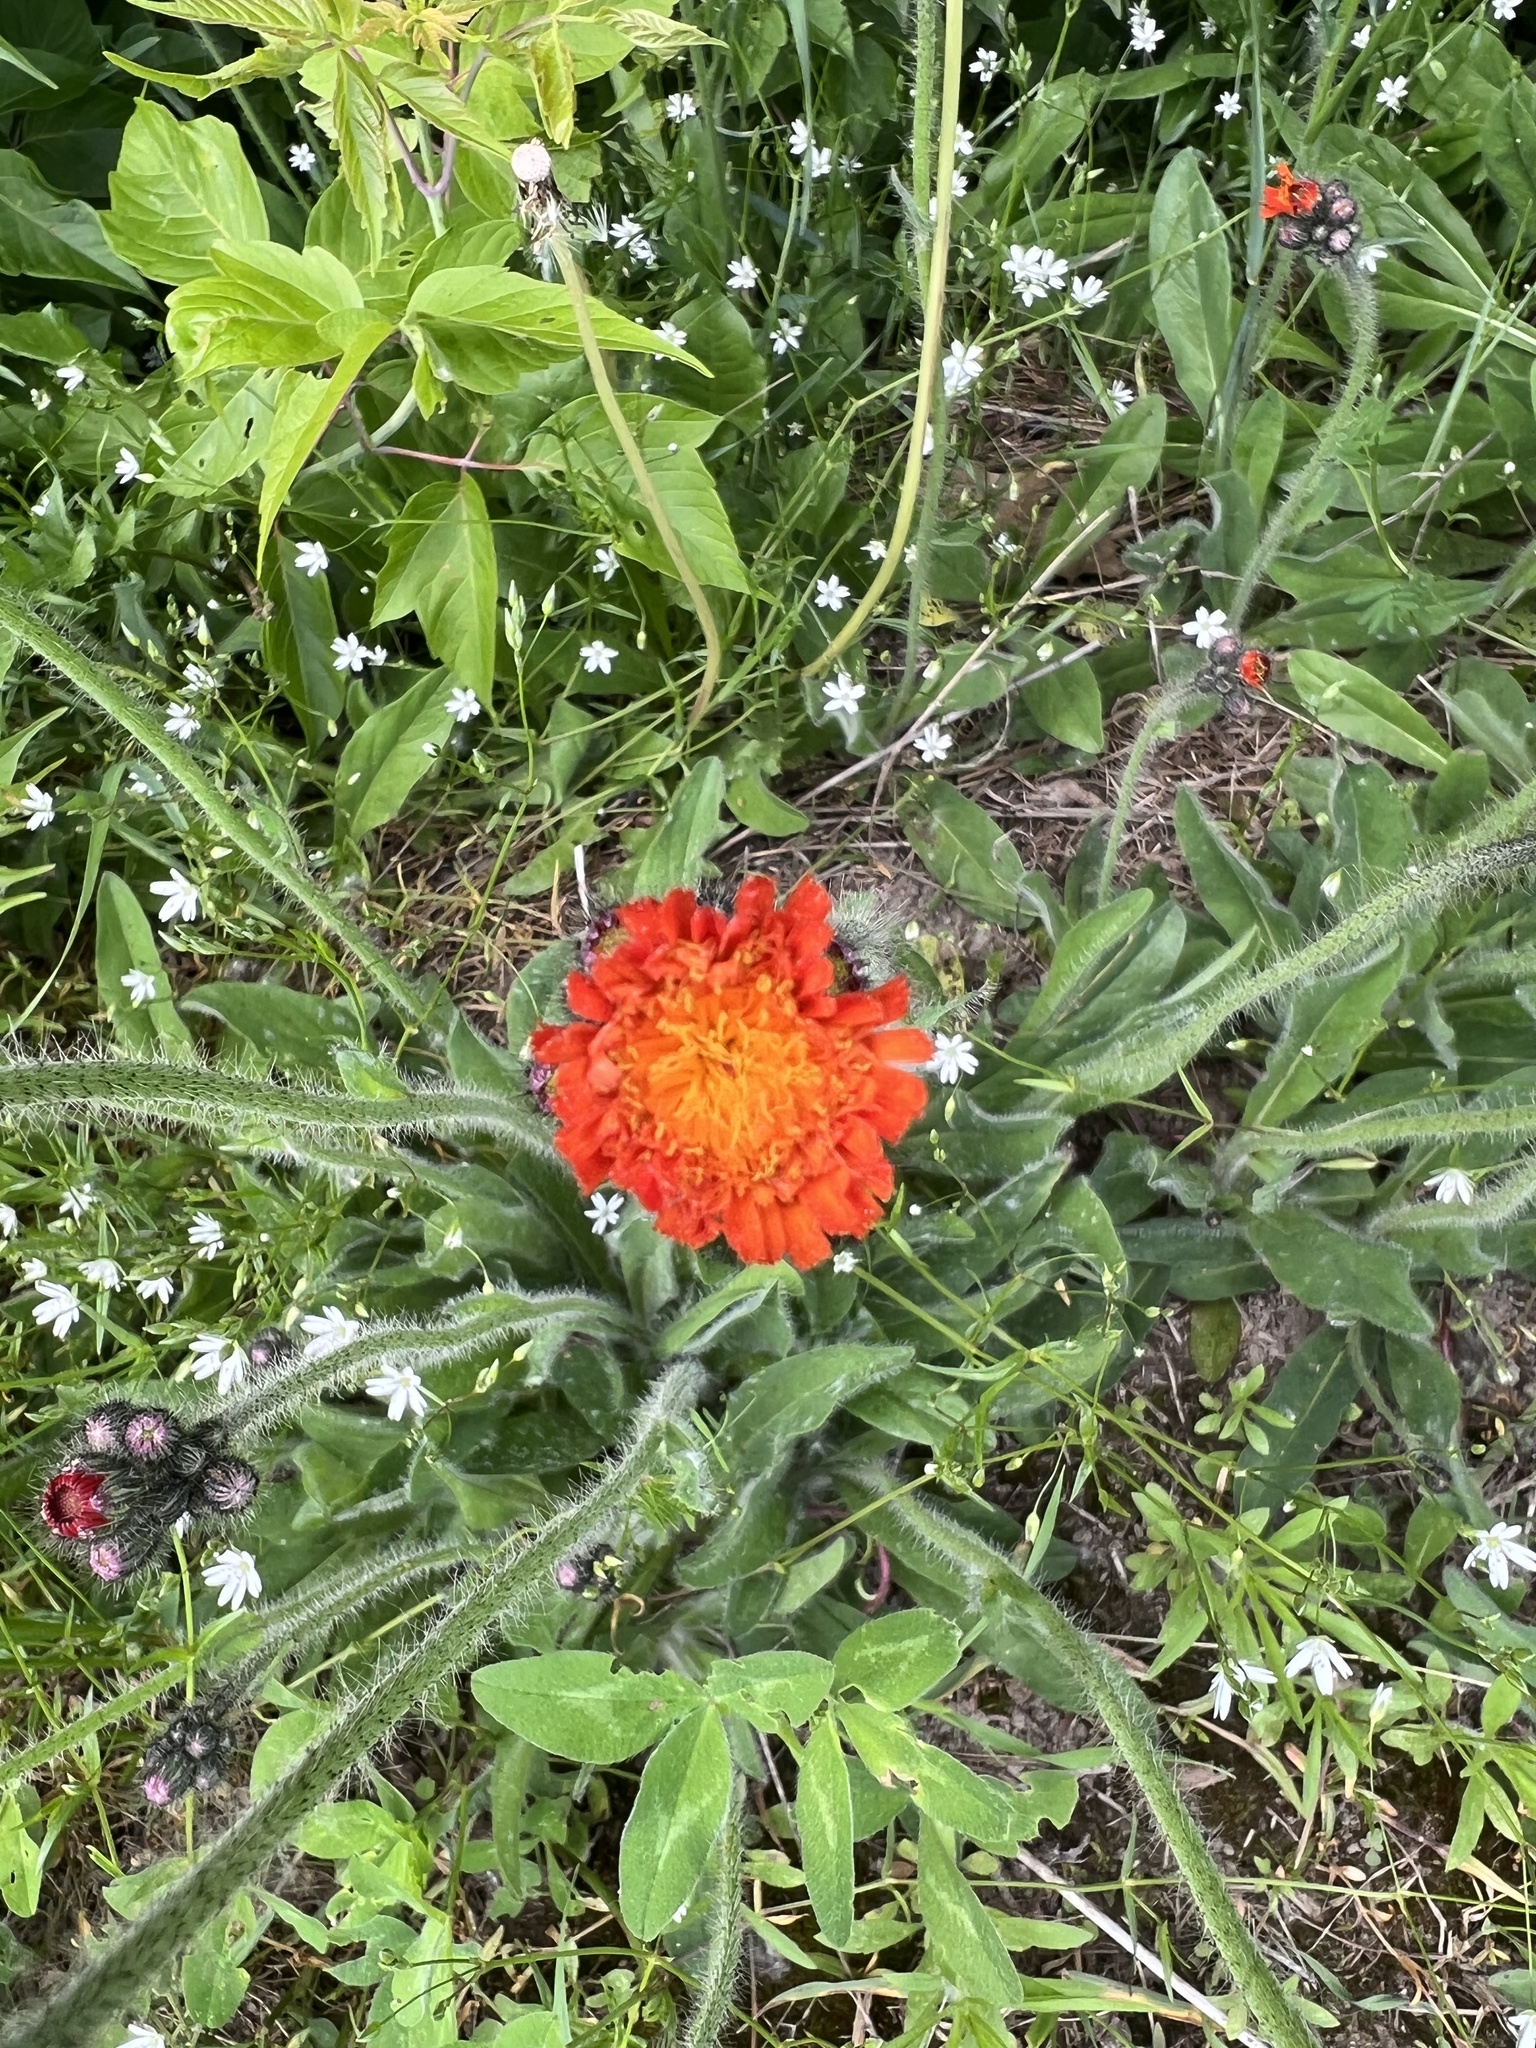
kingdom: Plantae
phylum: Tracheophyta
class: Magnoliopsida
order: Asterales
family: Asteraceae
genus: Pilosella
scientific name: Pilosella aurantiaca
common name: Fox-and-cubs
